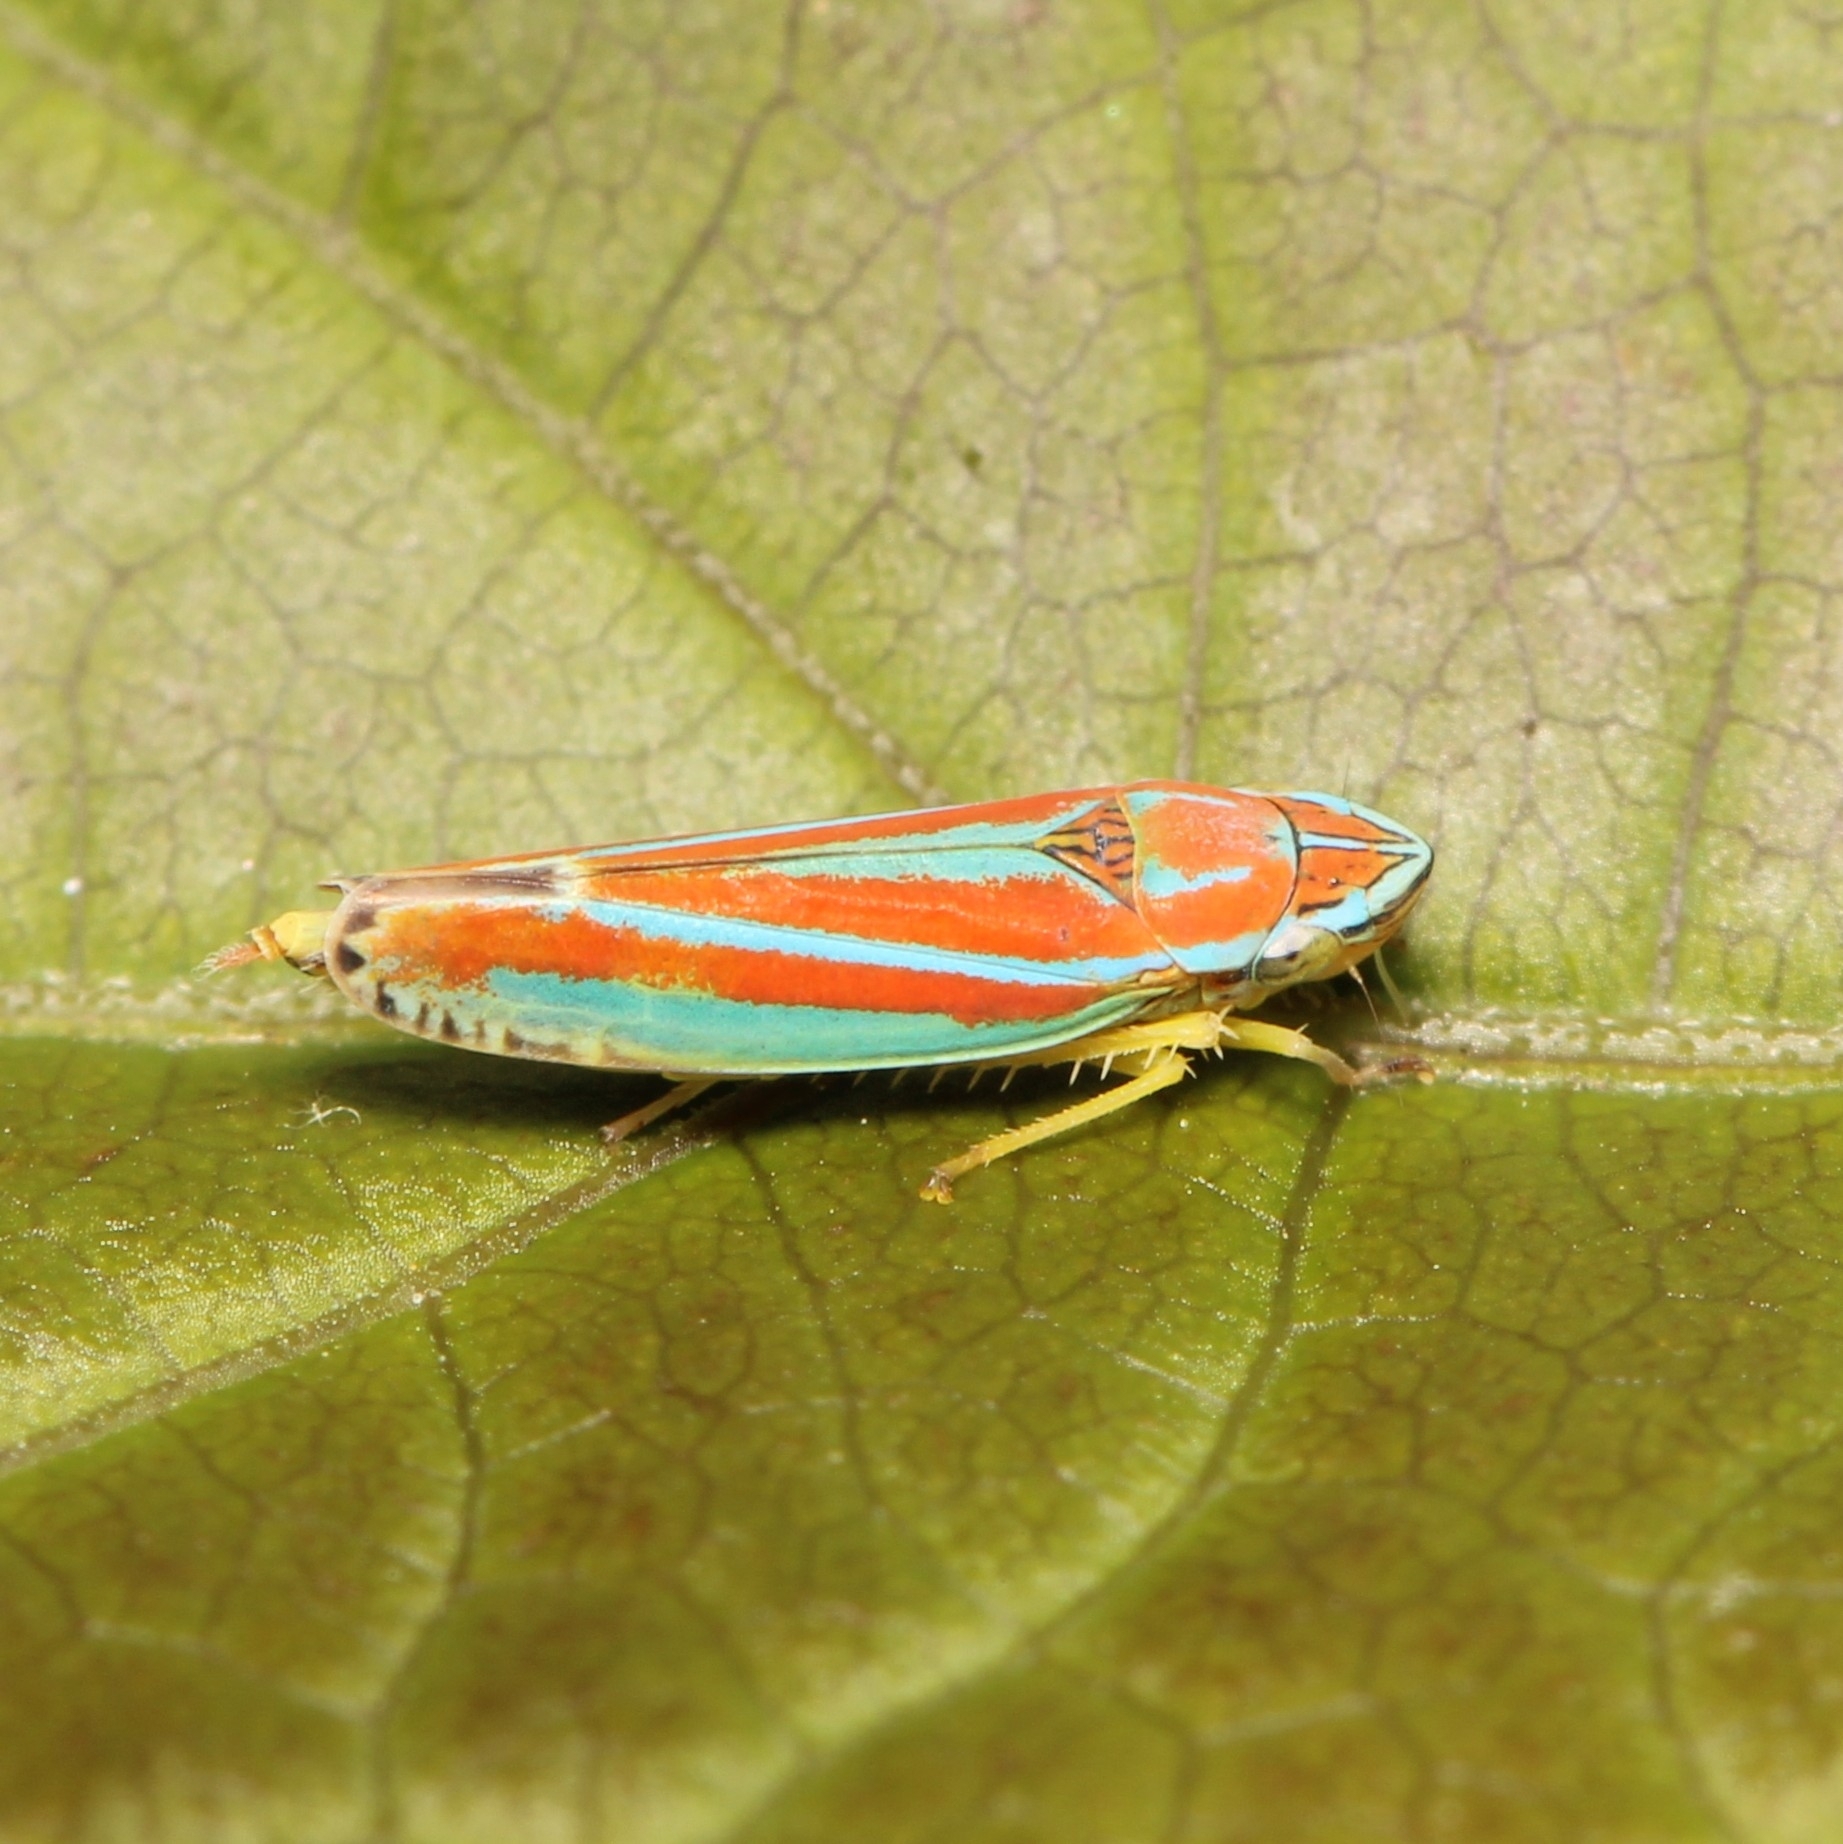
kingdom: Animalia
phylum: Arthropoda
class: Insecta
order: Hemiptera
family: Cicadellidae
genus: Graphocephala
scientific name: Graphocephala versuta
